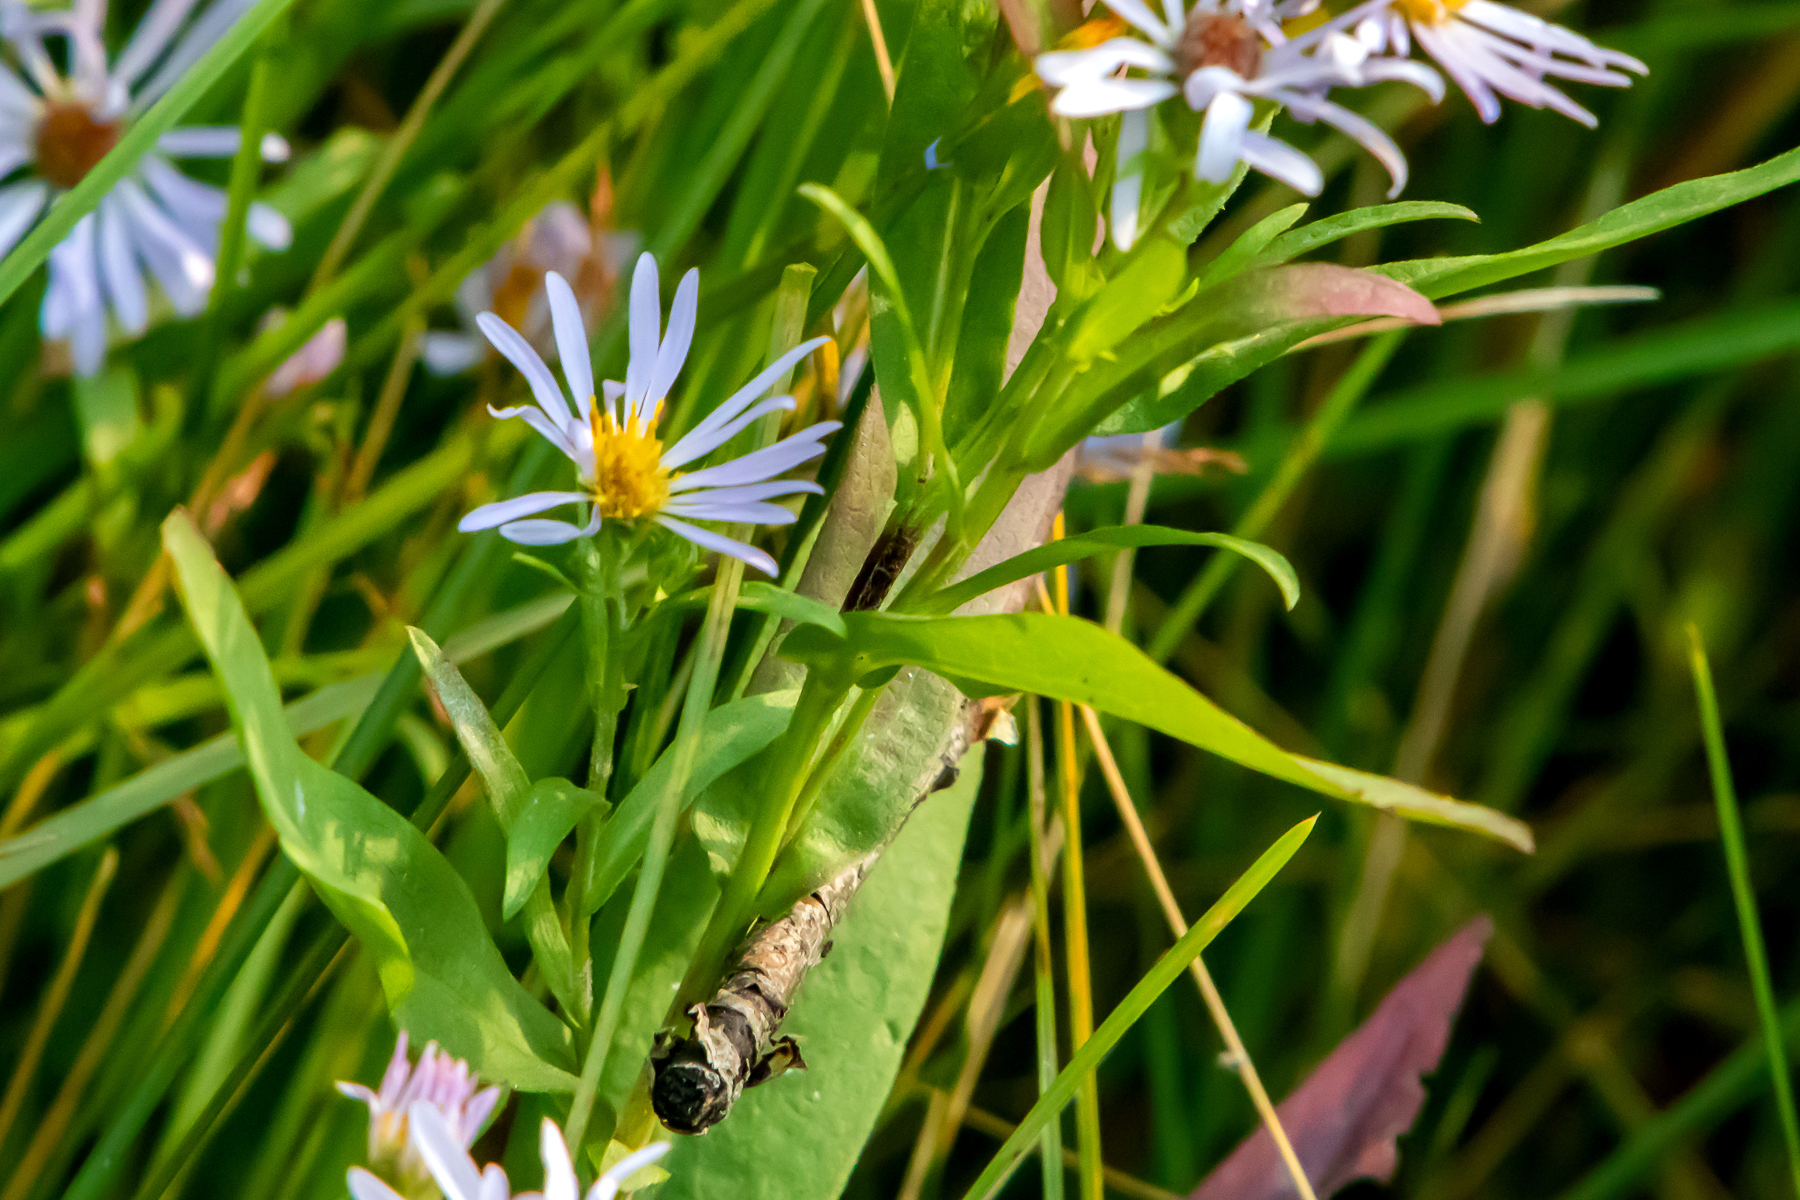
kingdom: Plantae
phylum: Tracheophyta
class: Magnoliopsida
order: Asterales
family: Asteraceae
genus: Symphyotrichum
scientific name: Symphyotrichum spathulatum
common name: Western mountain aster
